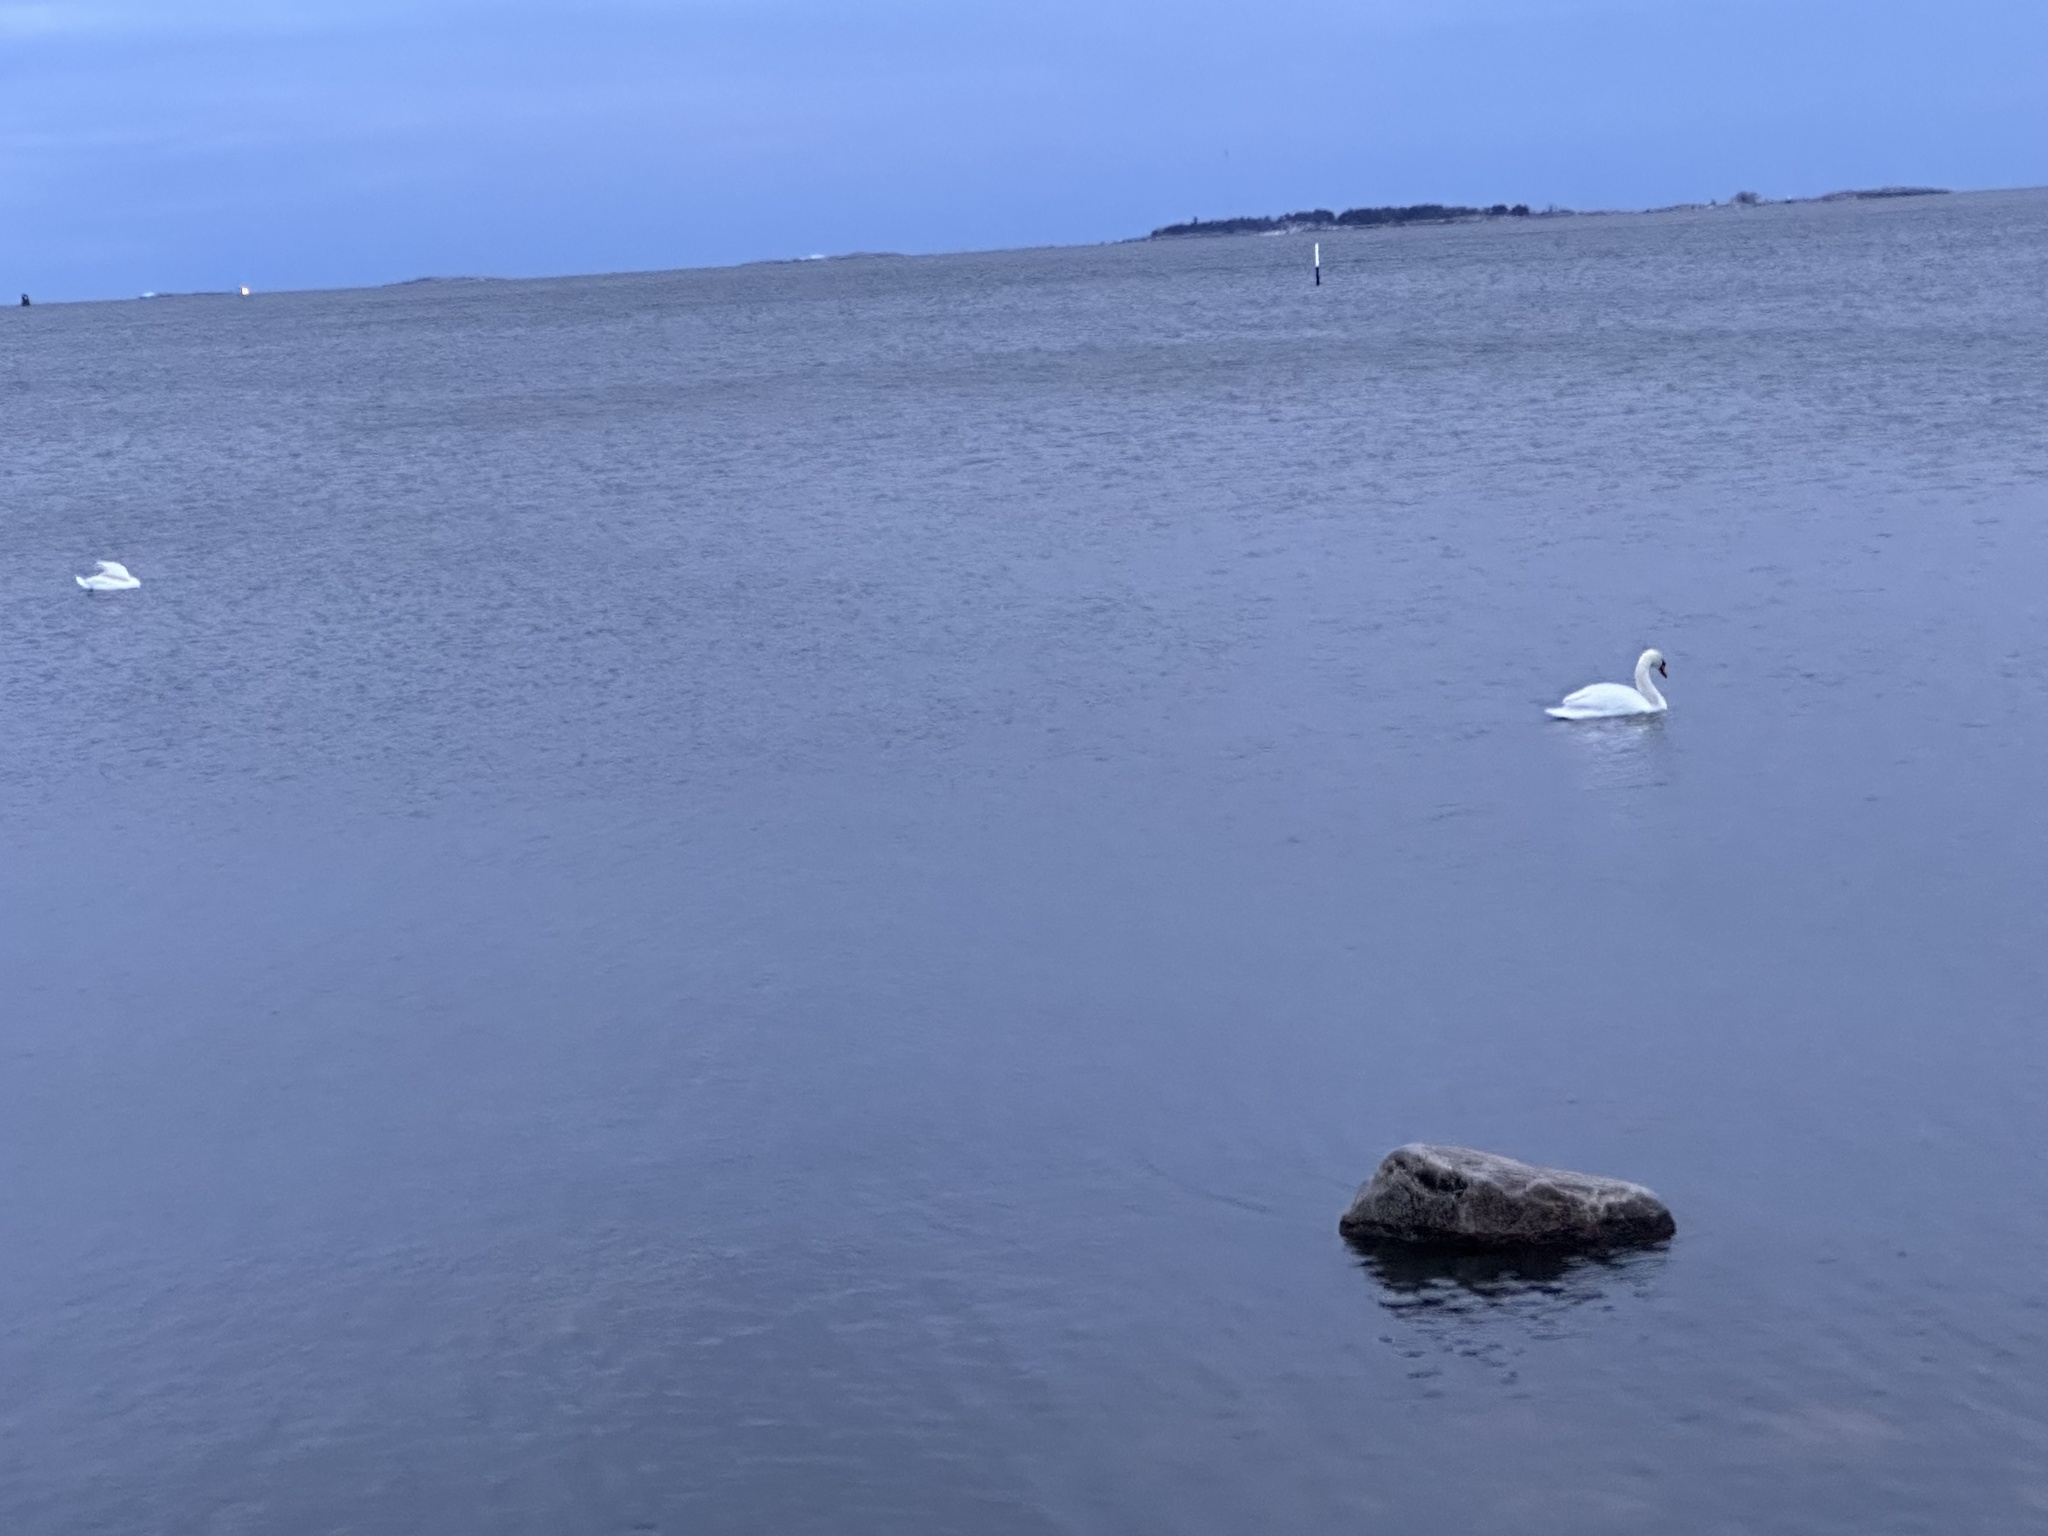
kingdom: Animalia
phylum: Chordata
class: Aves
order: Anseriformes
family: Anatidae
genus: Cygnus
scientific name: Cygnus olor
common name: Mute swan
